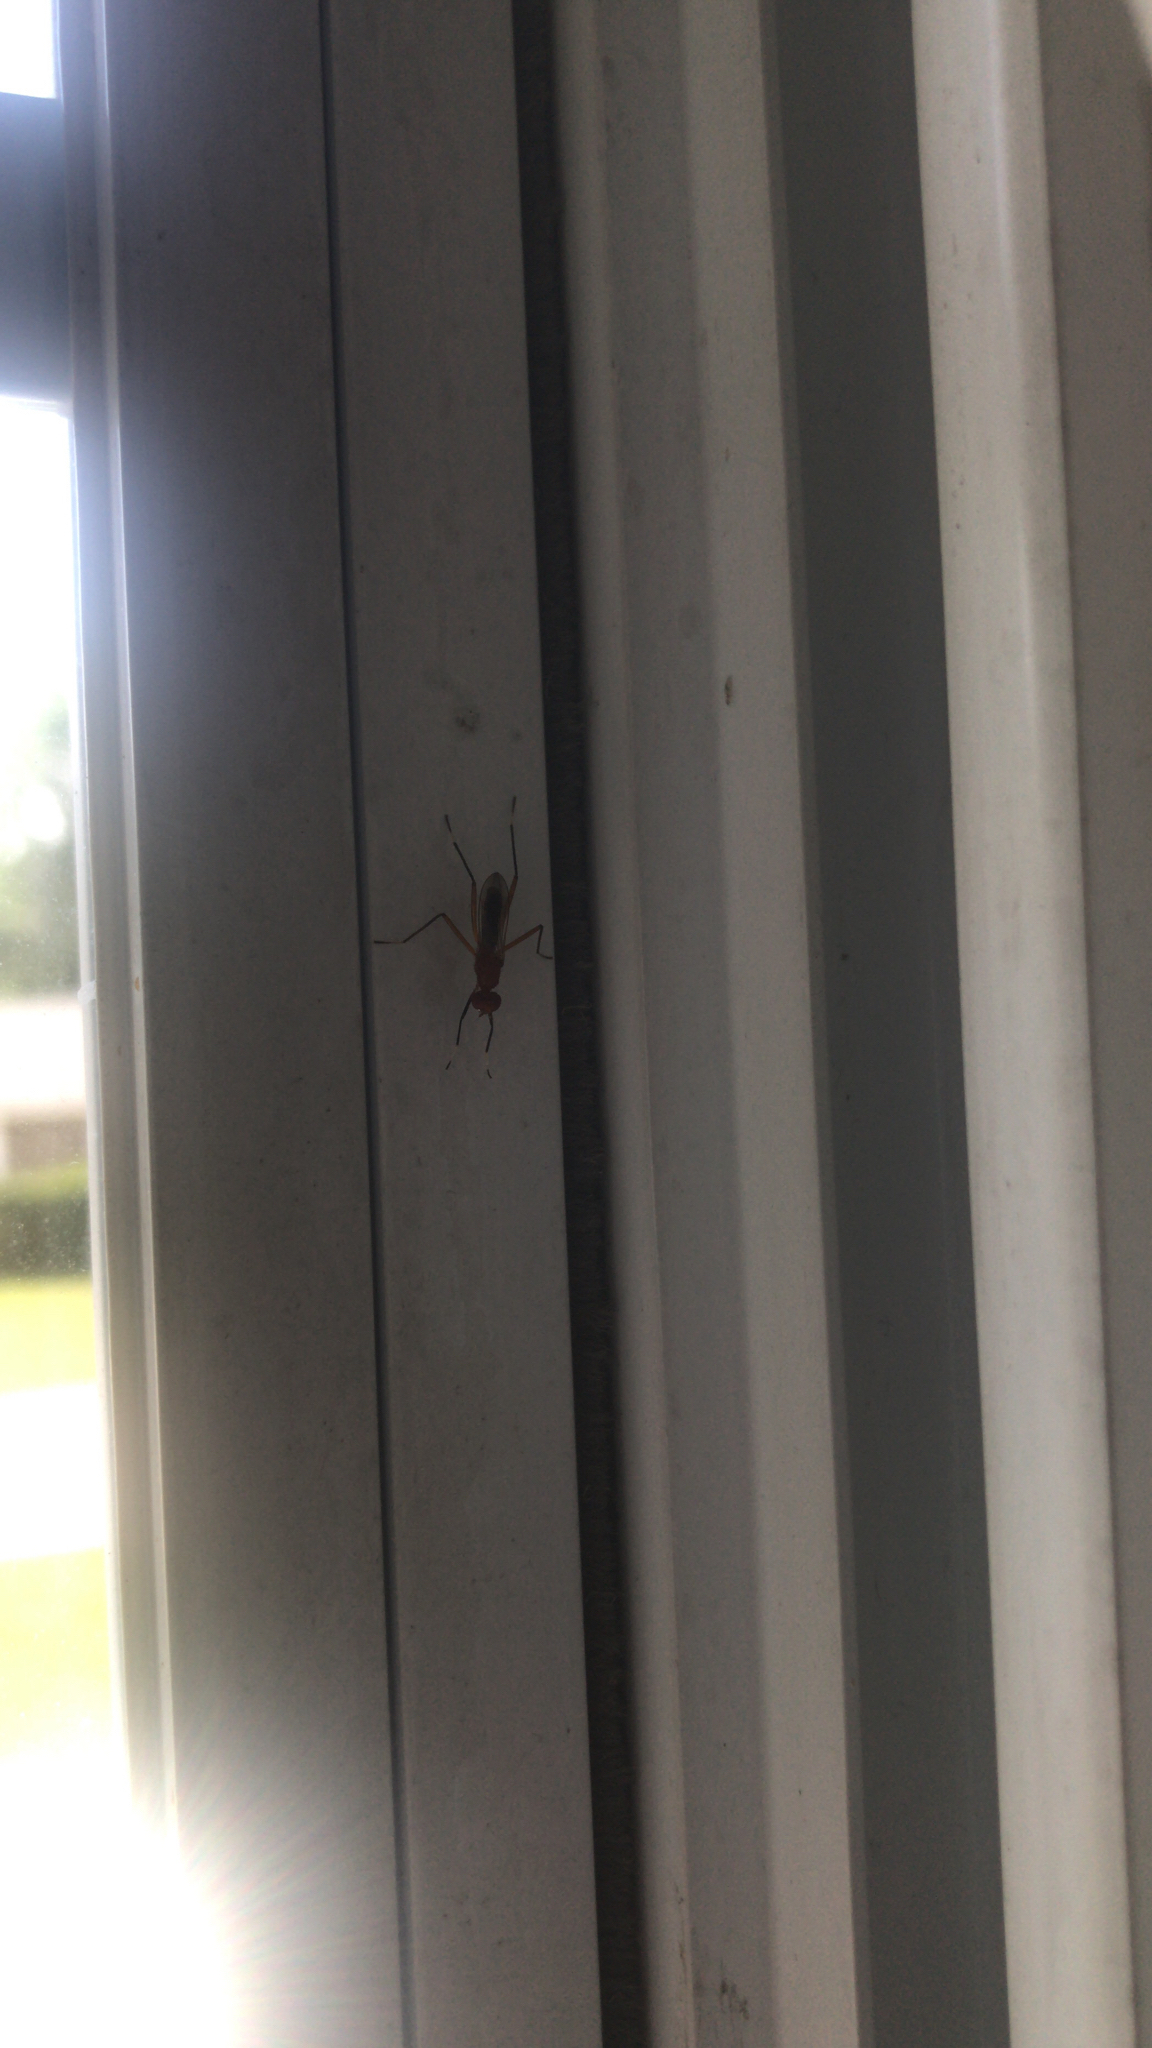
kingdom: Animalia
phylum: Arthropoda
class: Insecta
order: Diptera
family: Micropezidae
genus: Grallipeza
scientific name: Grallipeza nebulosa
